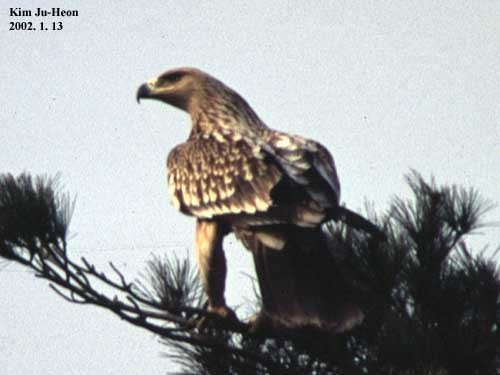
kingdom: Animalia
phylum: Chordata
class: Aves
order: Accipitriformes
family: Accipitridae
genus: Aquila
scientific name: Aquila heliaca
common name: Eastern imperial eagle
